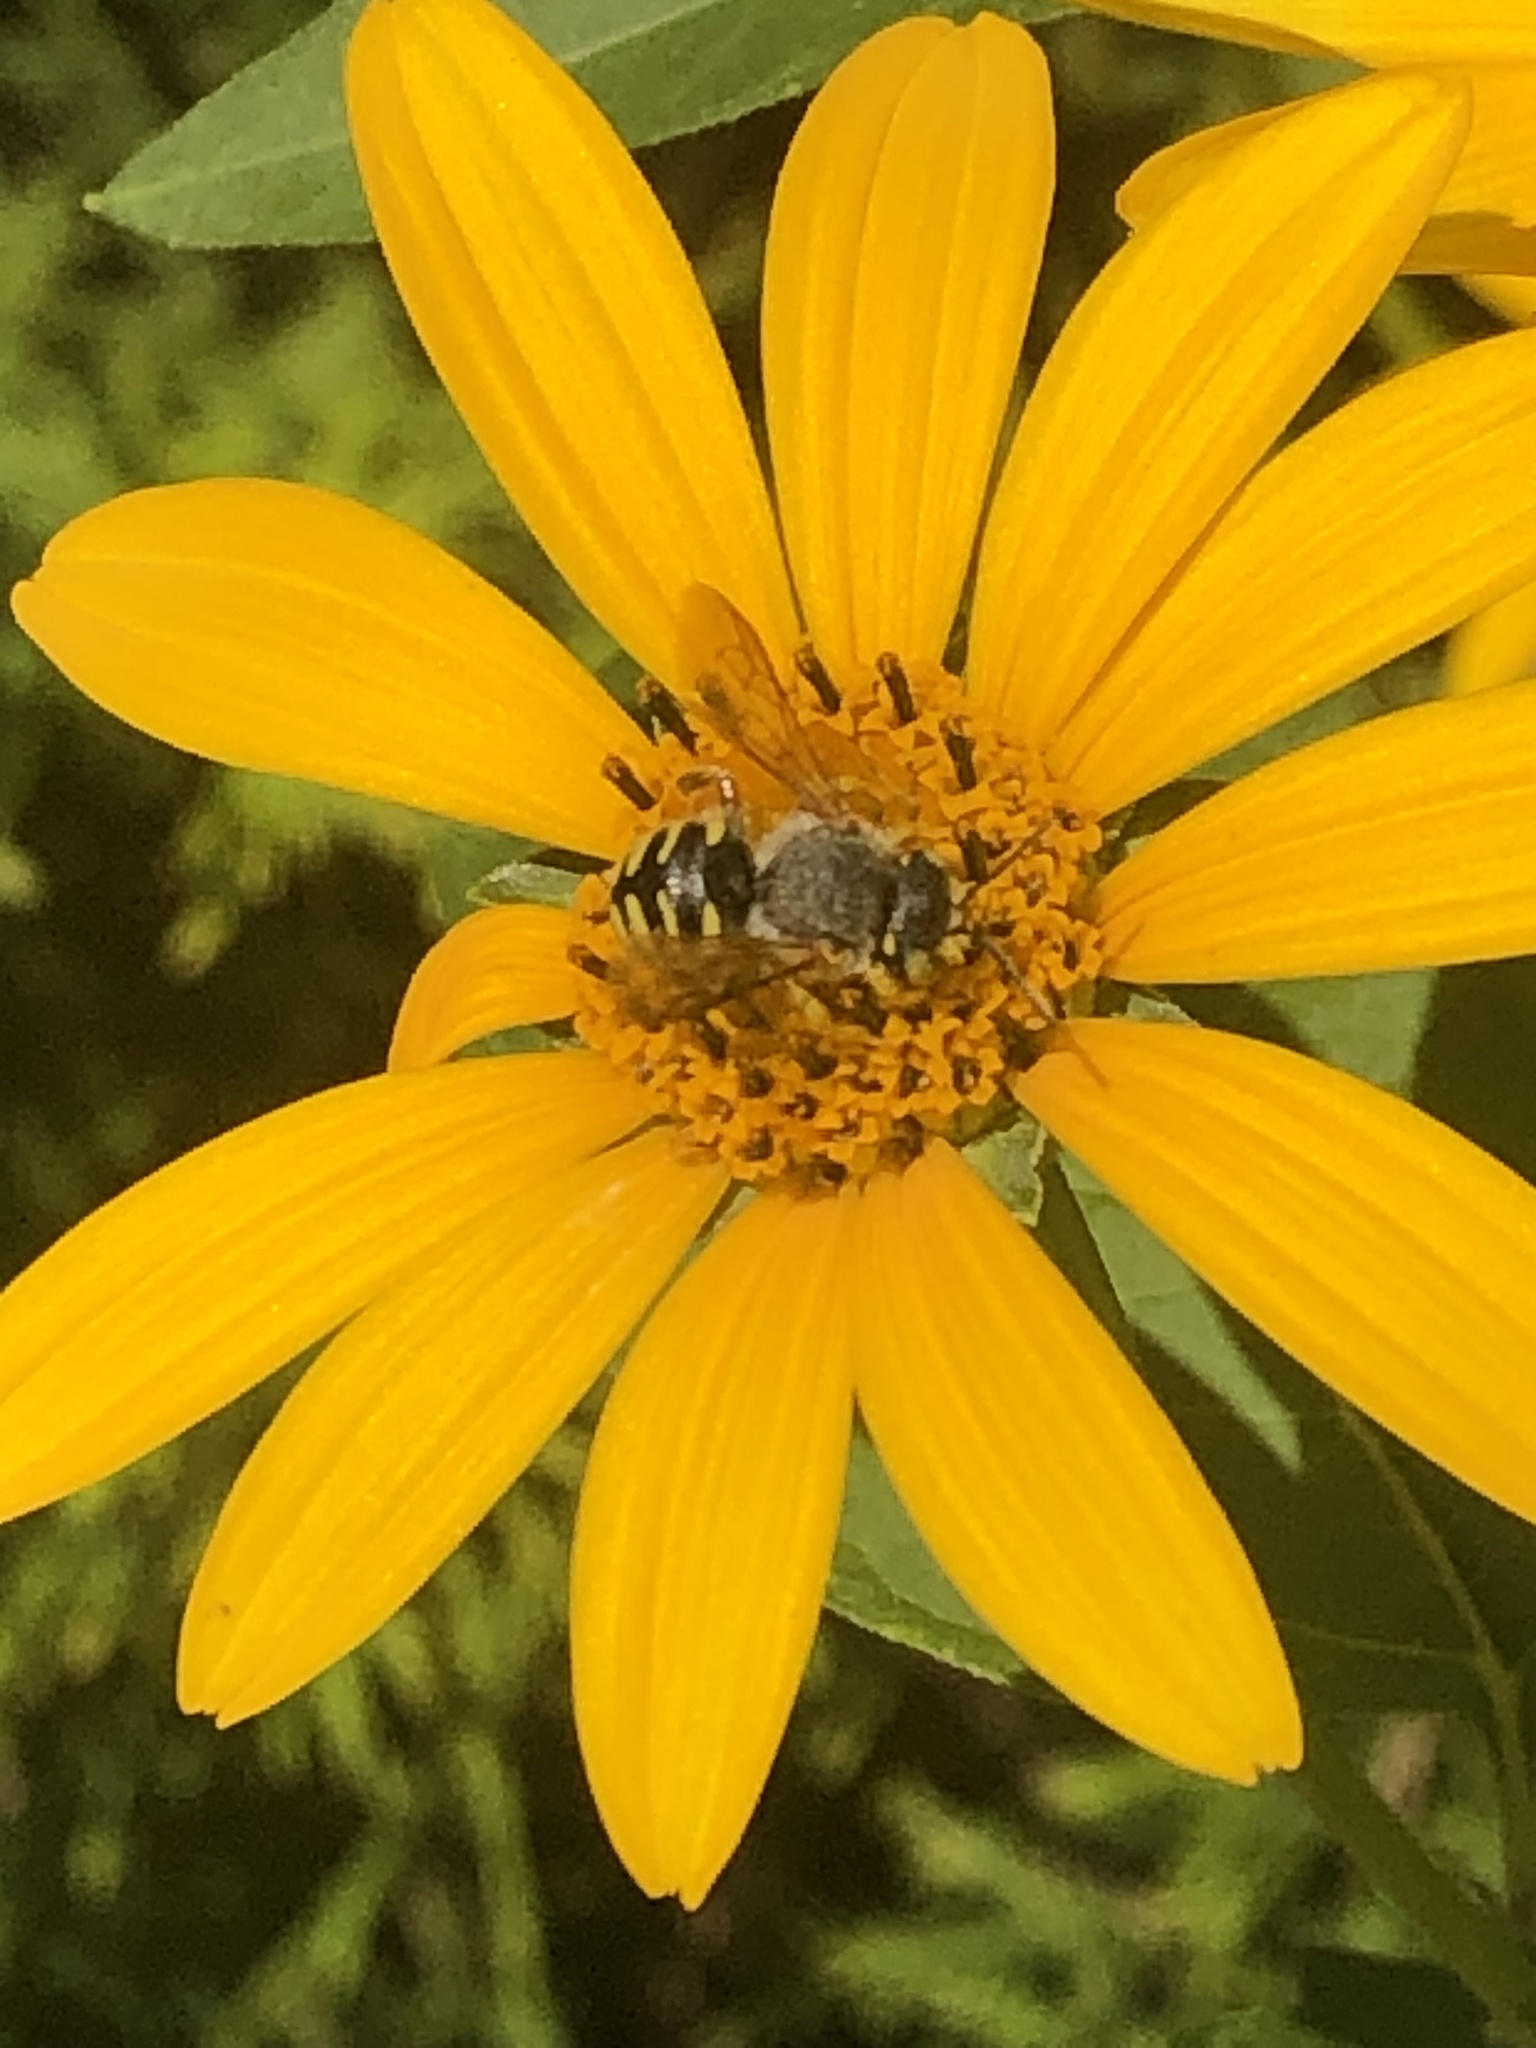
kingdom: Animalia
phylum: Arthropoda
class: Insecta
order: Hymenoptera
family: Megachilidae
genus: Anthidium
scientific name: Anthidium oblongatum
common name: Oblong wool carder bee
